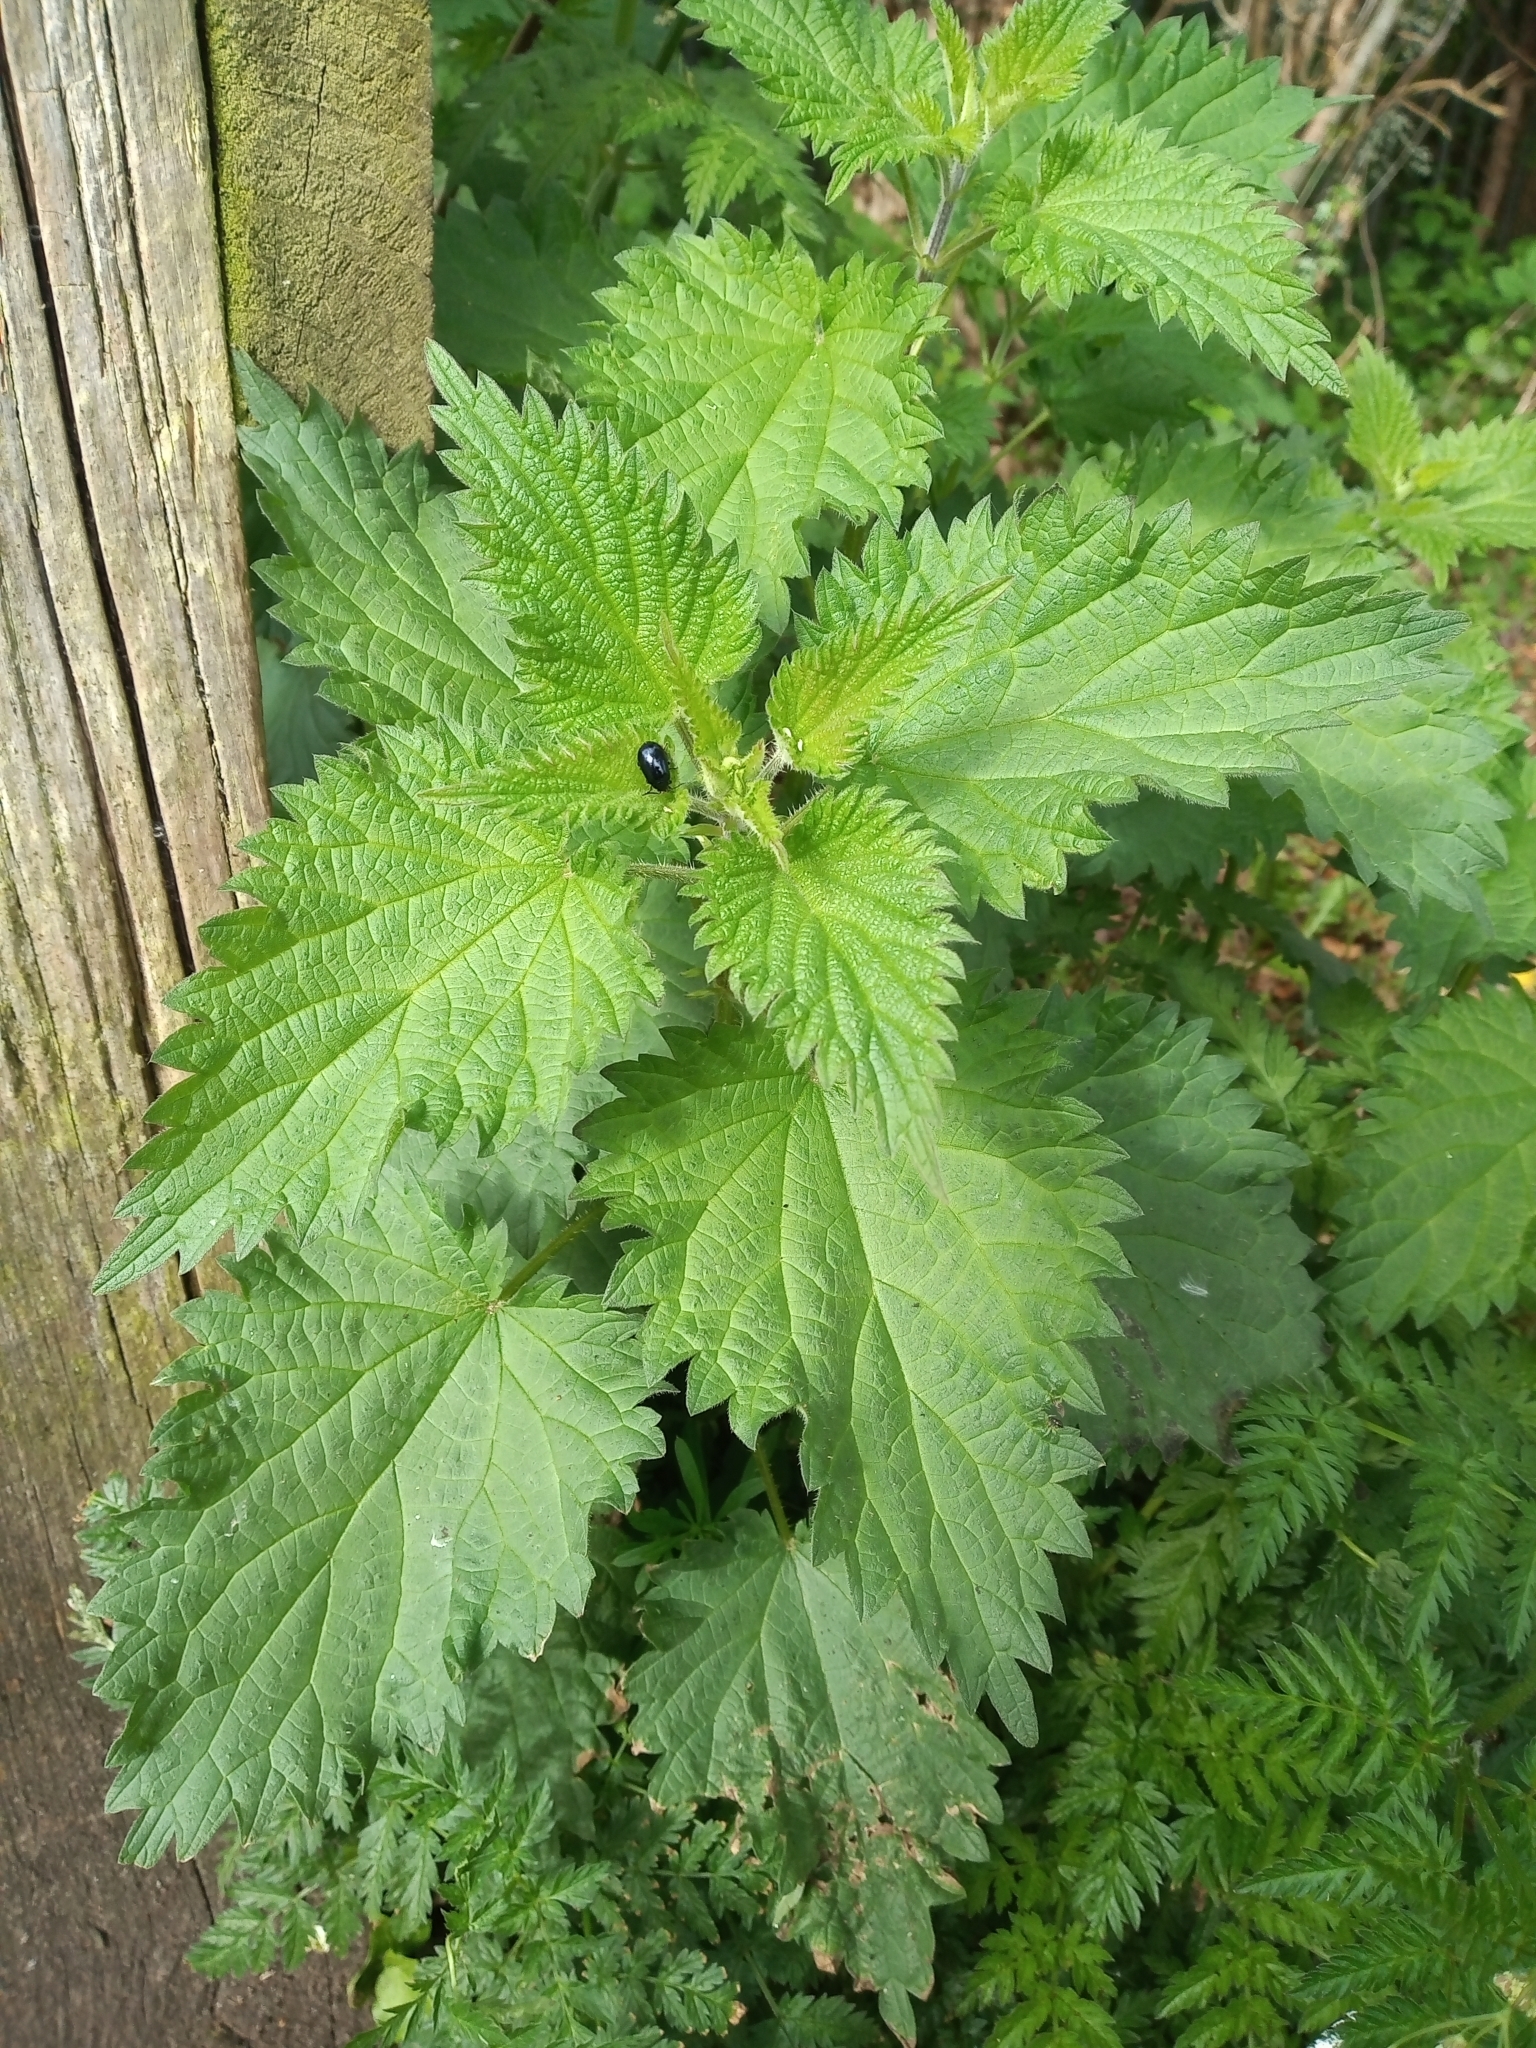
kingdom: Plantae
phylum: Tracheophyta
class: Magnoliopsida
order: Rosales
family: Urticaceae
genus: Urtica
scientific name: Urtica dioica
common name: Common nettle
